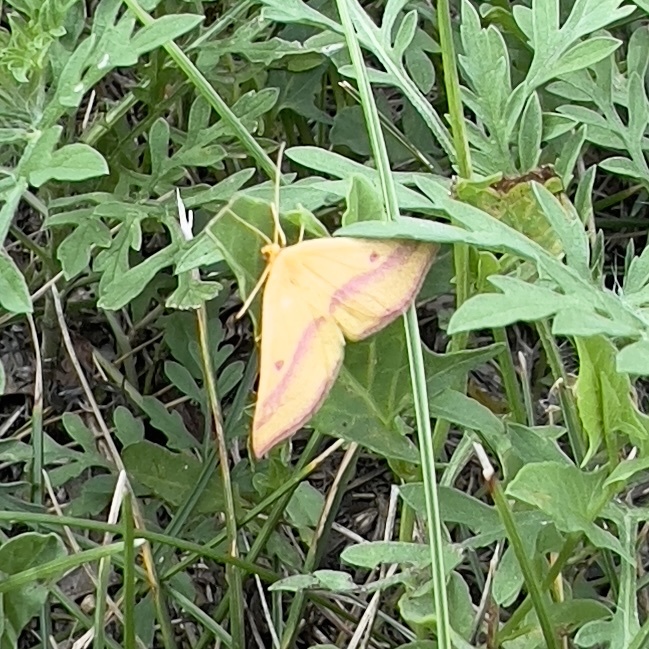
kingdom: Animalia
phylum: Arthropoda
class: Insecta
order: Lepidoptera
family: Geometridae
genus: Haematopis
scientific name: Haematopis grataria
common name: Chickweed geometer
